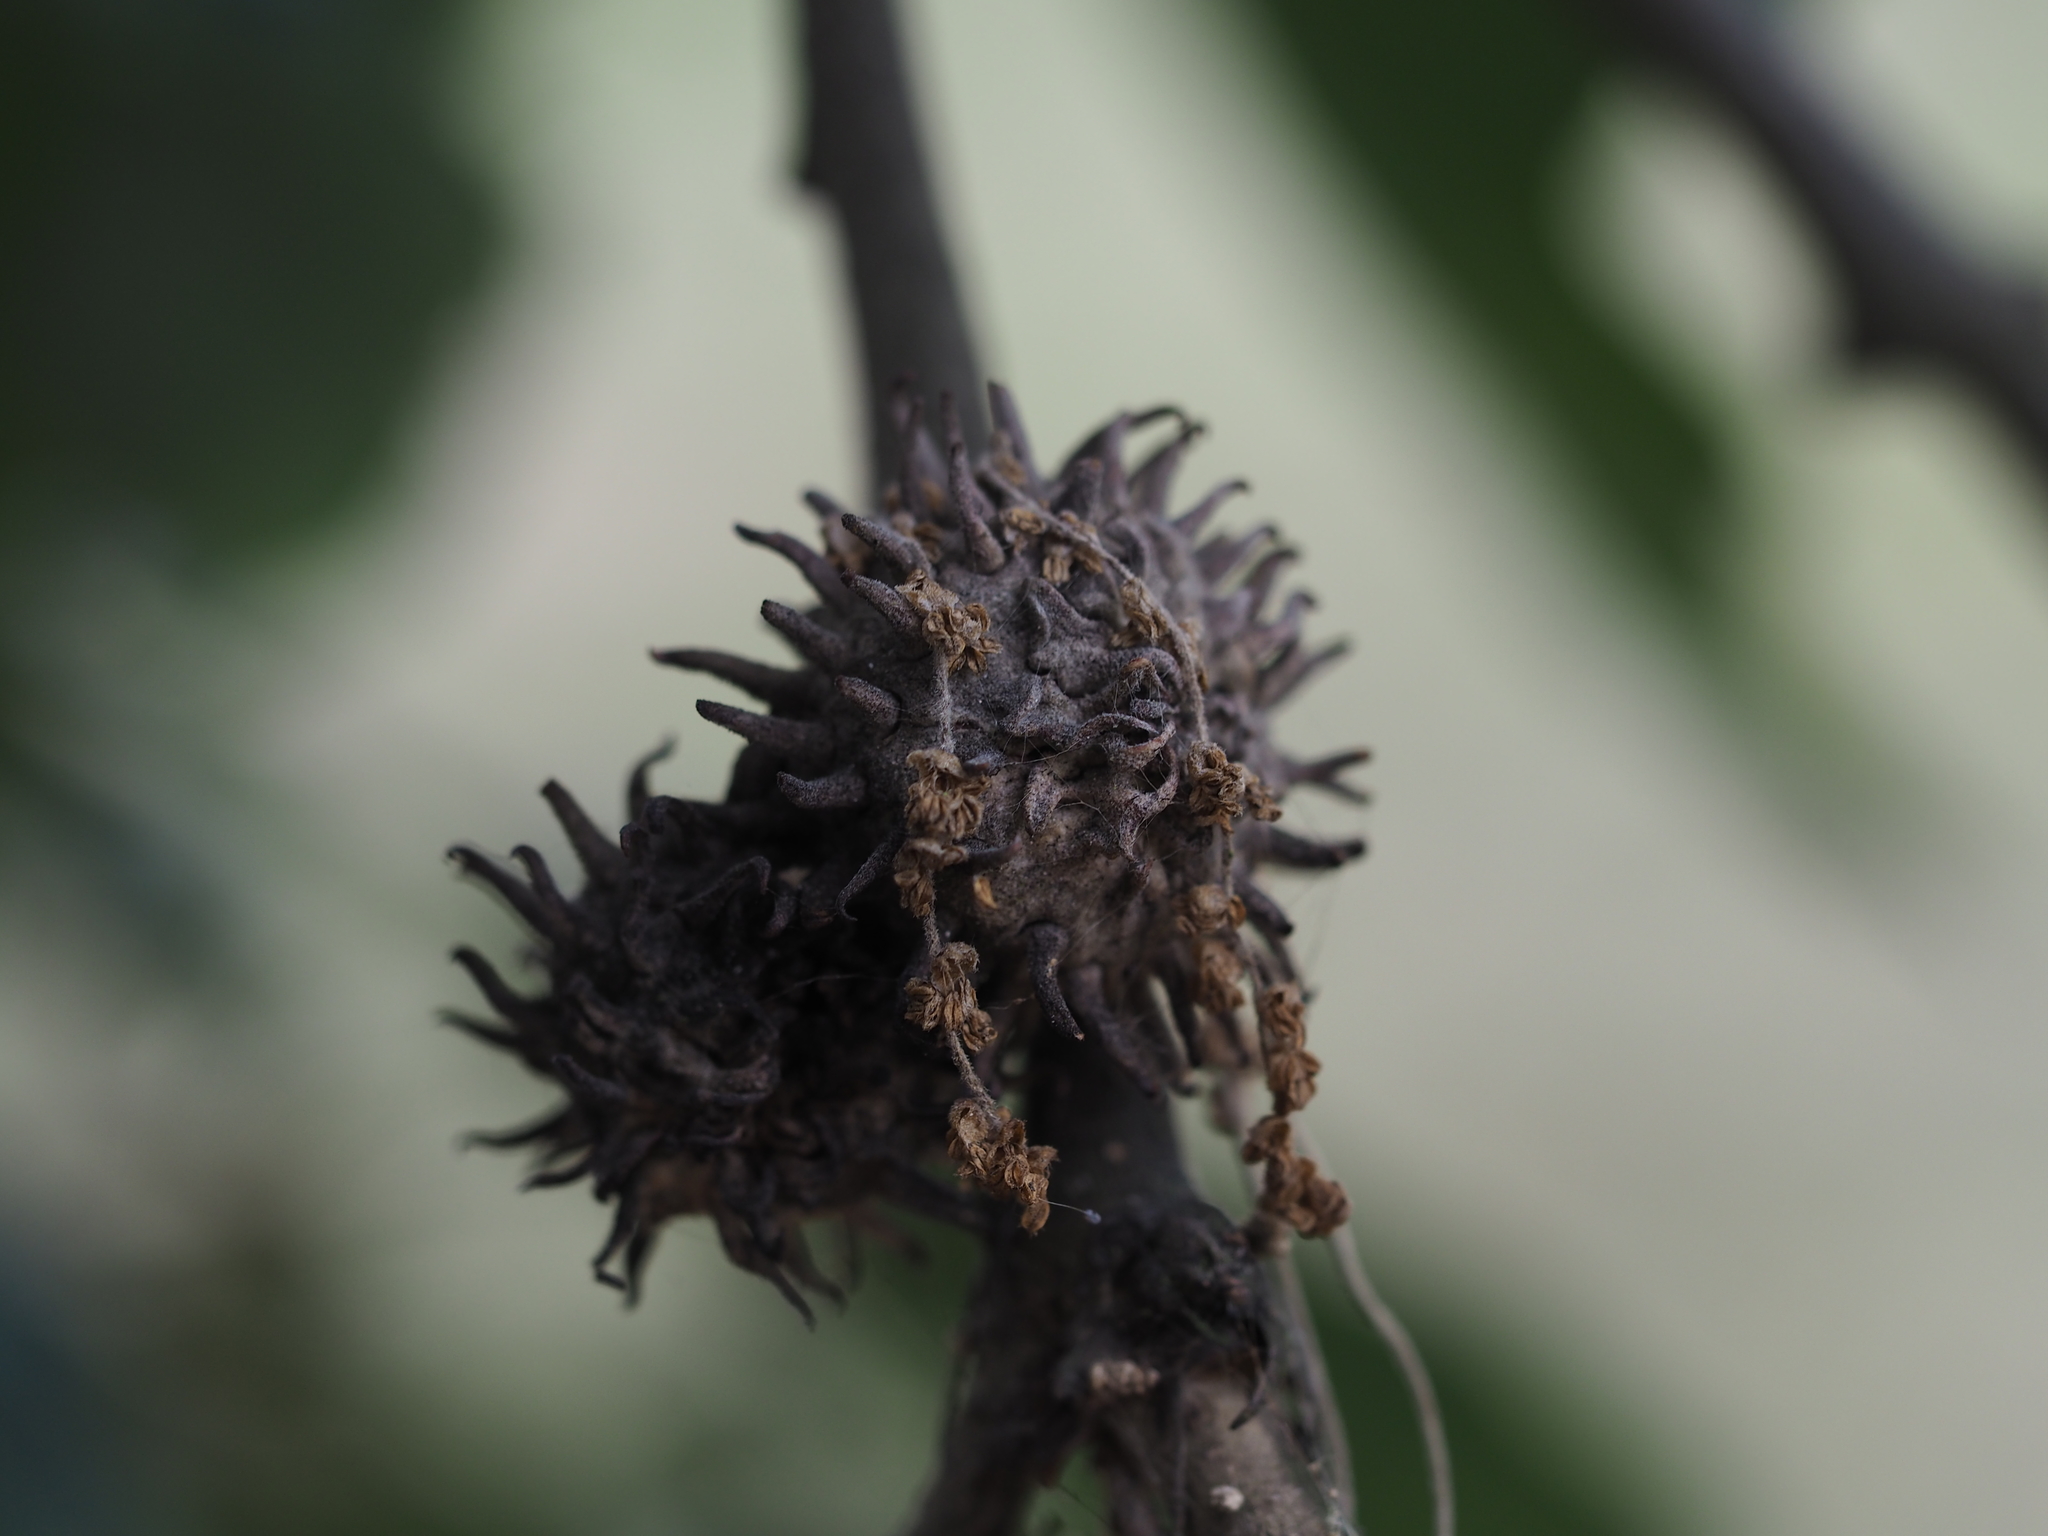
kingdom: Plantae
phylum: Tracheophyta
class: Magnoliopsida
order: Fagales
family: Fagaceae
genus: Quercus
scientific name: Quercus cerris
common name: Turkey oak
